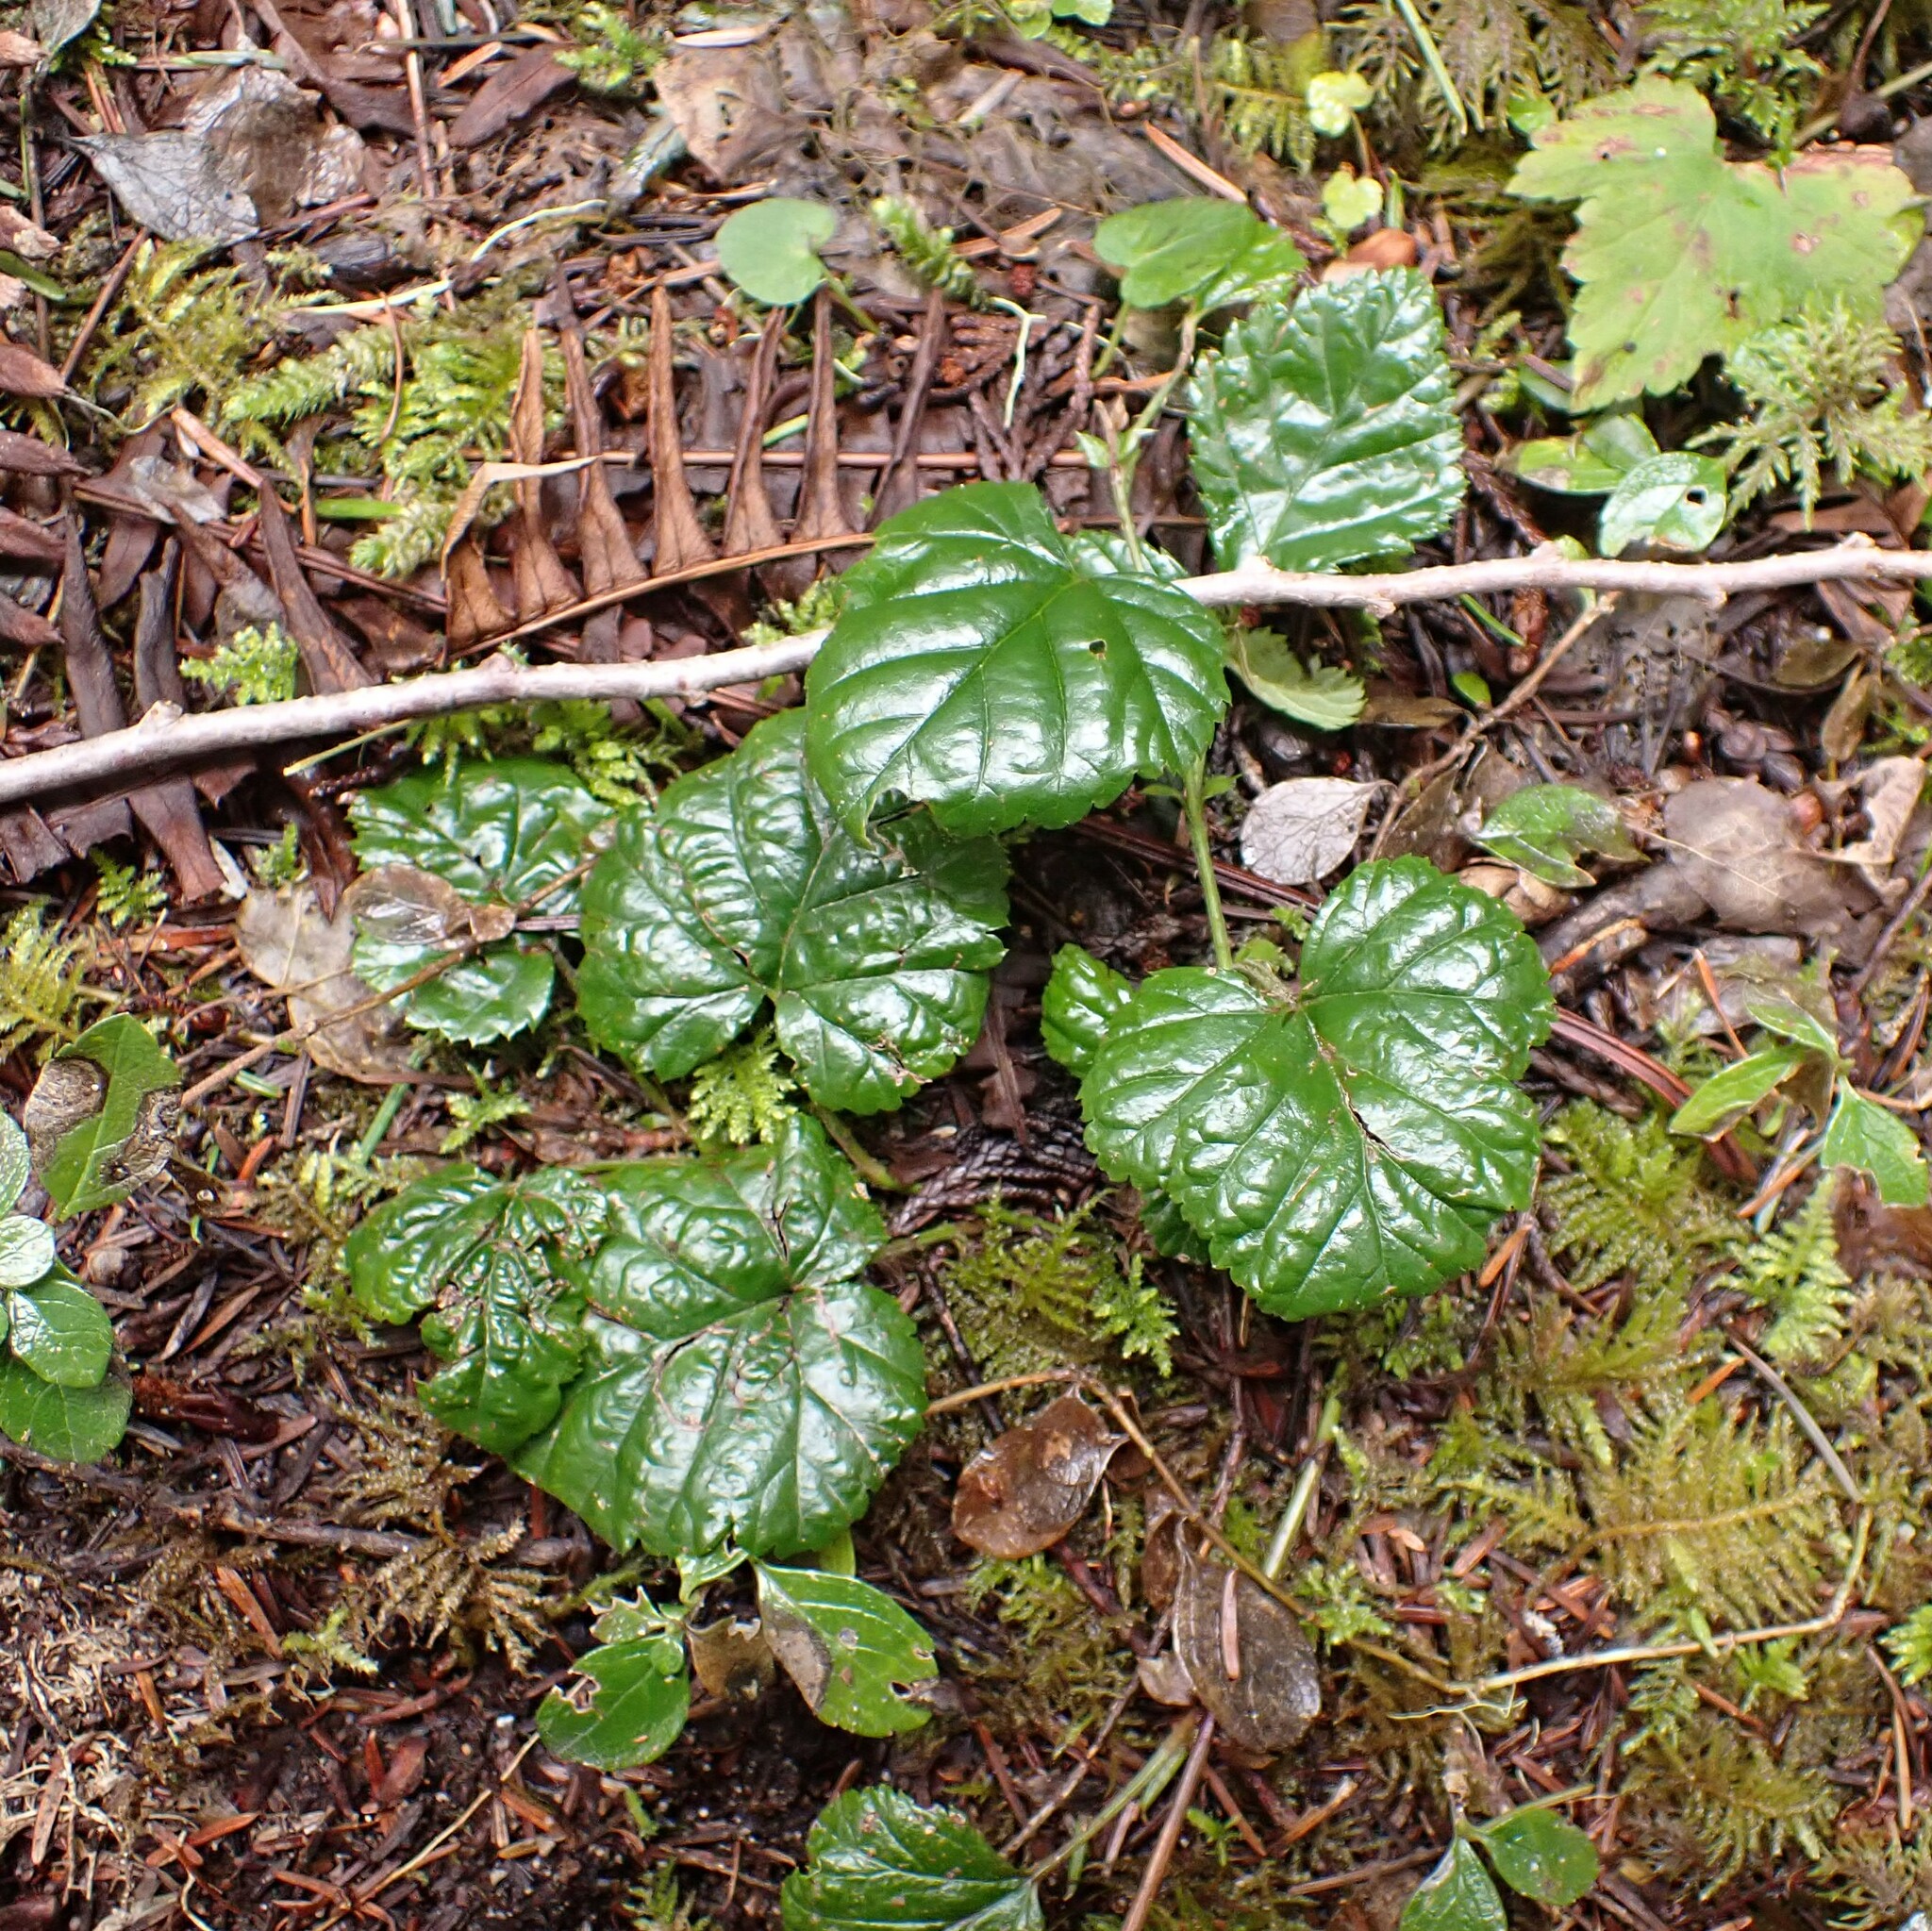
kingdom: Plantae
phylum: Tracheophyta
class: Magnoliopsida
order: Rosales
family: Rosaceae
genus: Rubus
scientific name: Rubus nivalis
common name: Dwarf snow bramble
